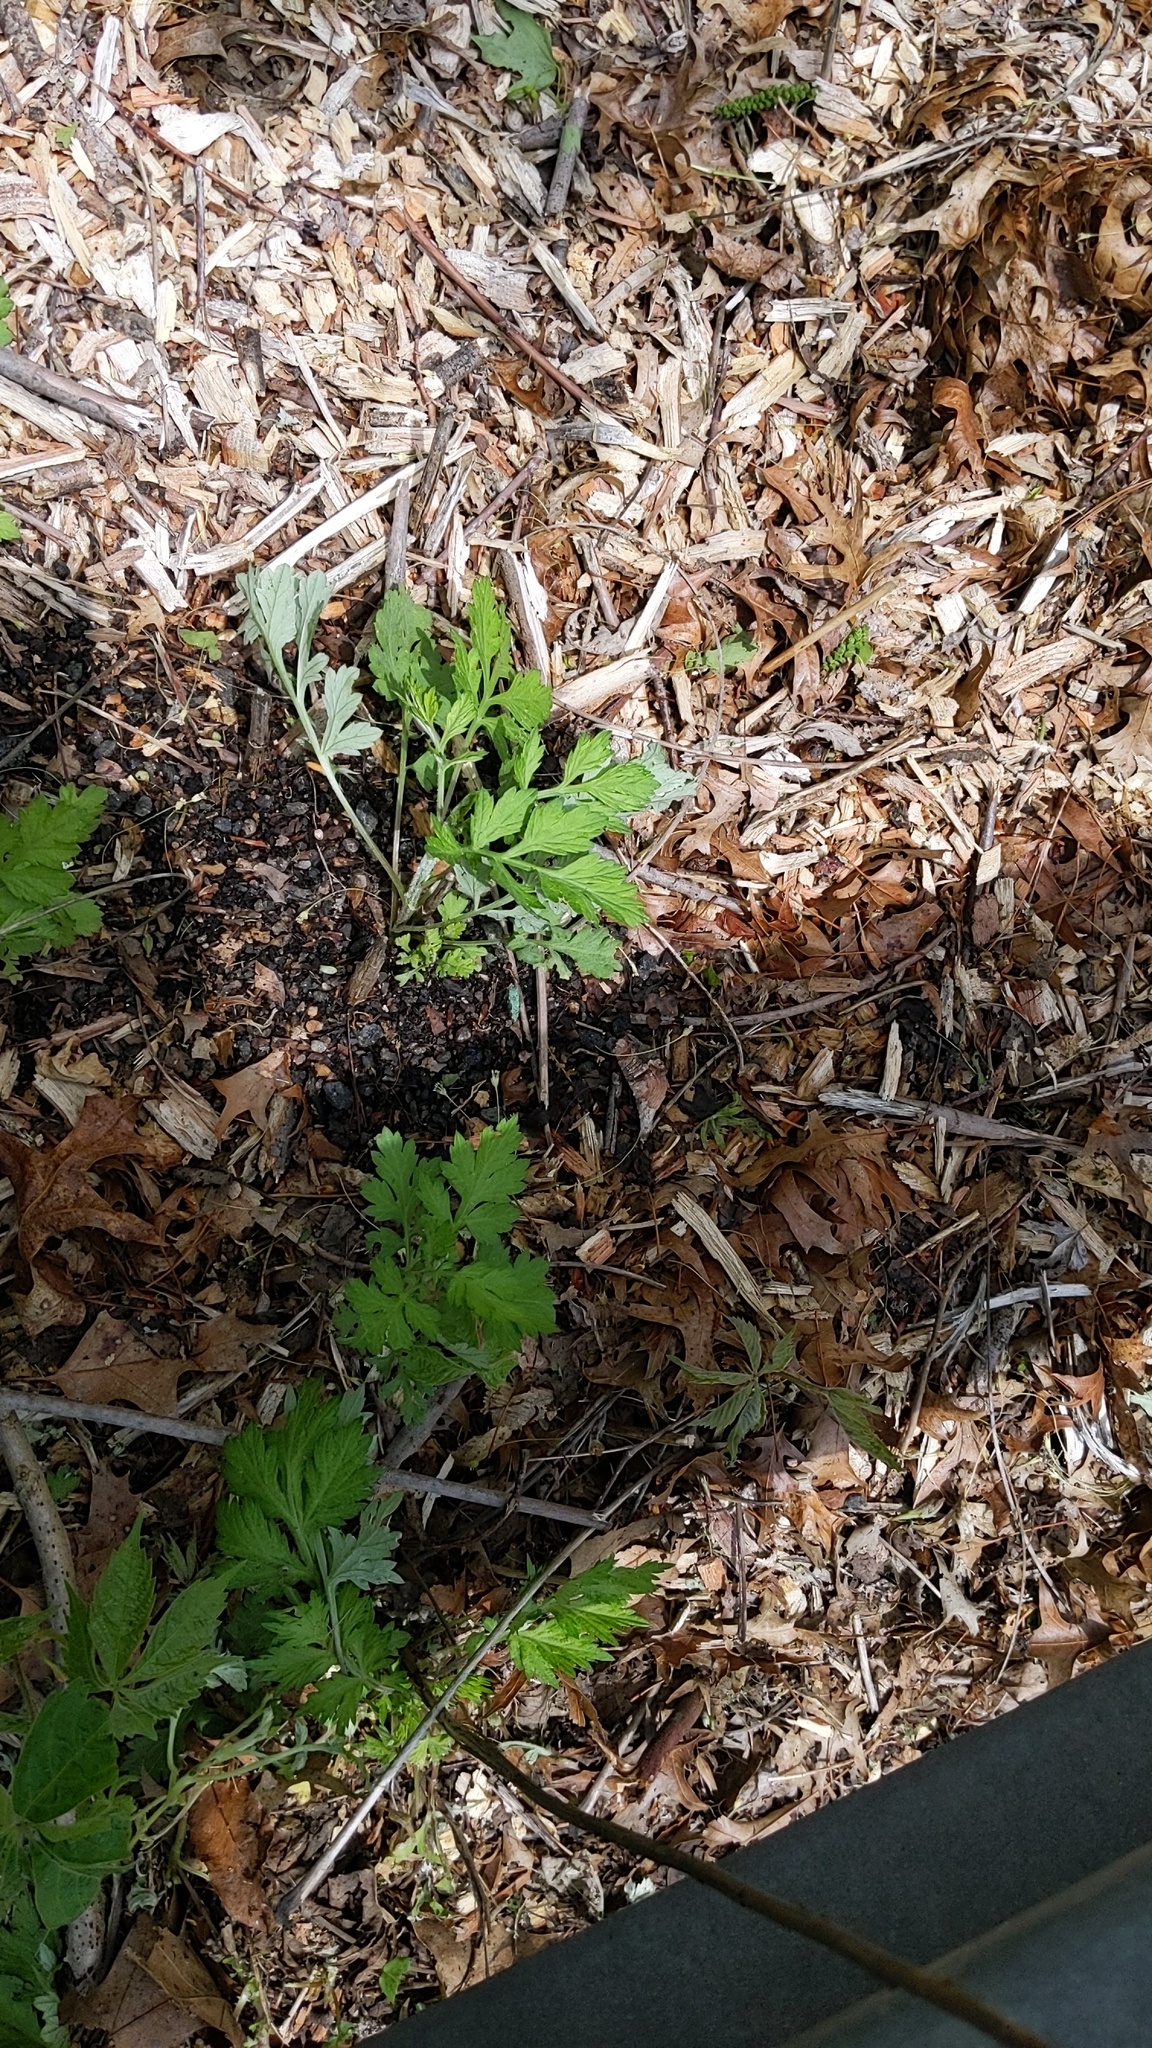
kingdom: Plantae
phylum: Tracheophyta
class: Magnoliopsida
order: Asterales
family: Asteraceae
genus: Artemisia
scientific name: Artemisia vulgaris
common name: Mugwort
